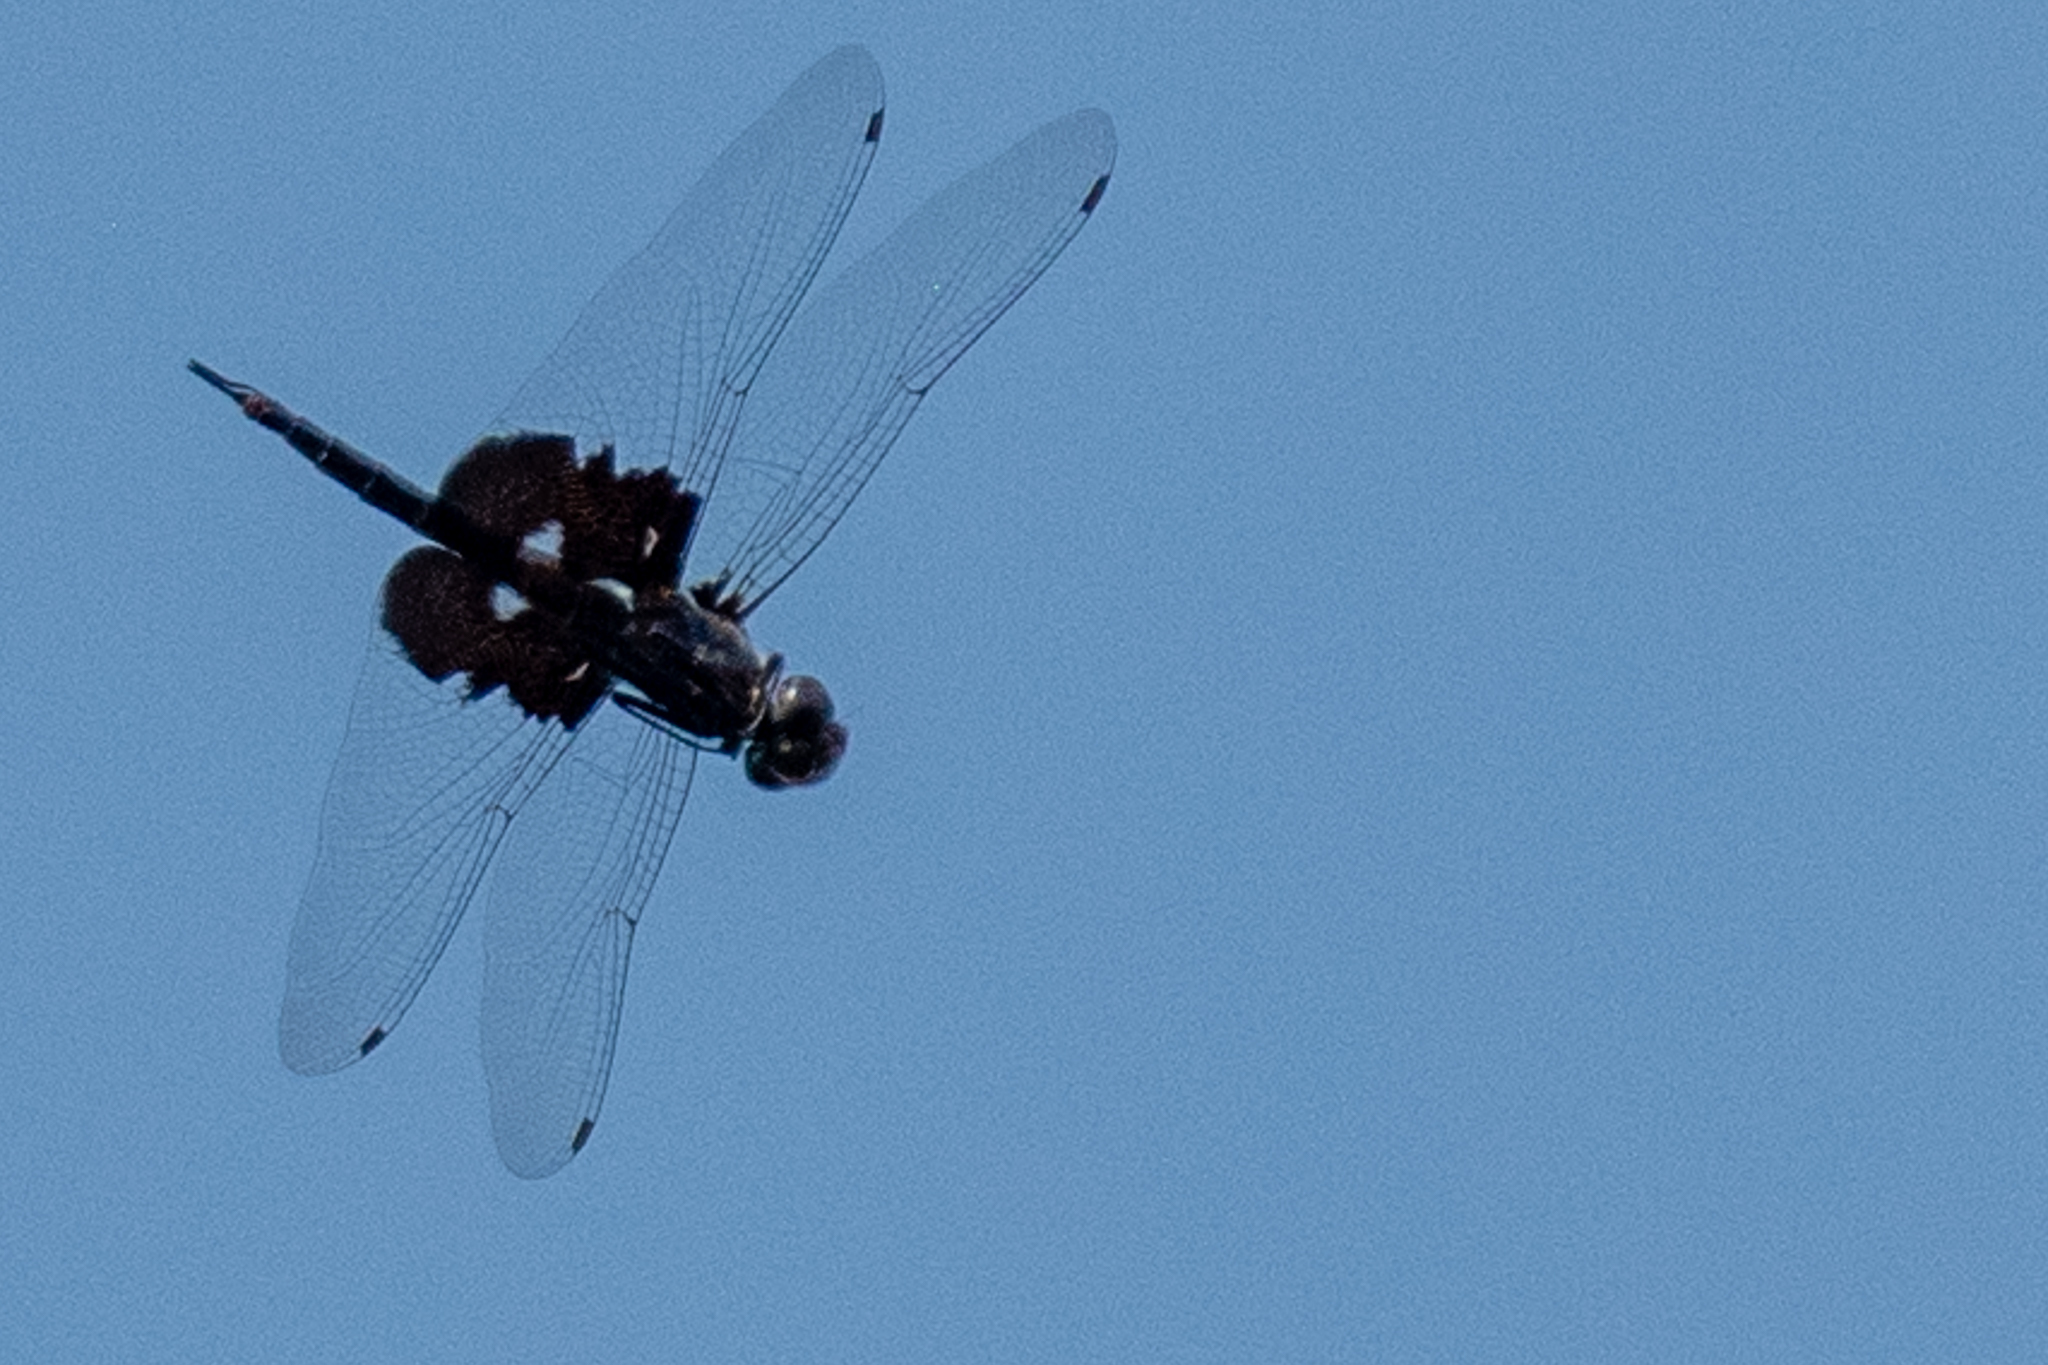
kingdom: Animalia
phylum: Arthropoda
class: Insecta
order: Odonata
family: Libellulidae
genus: Tramea
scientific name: Tramea lacerata
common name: Black saddlebags
